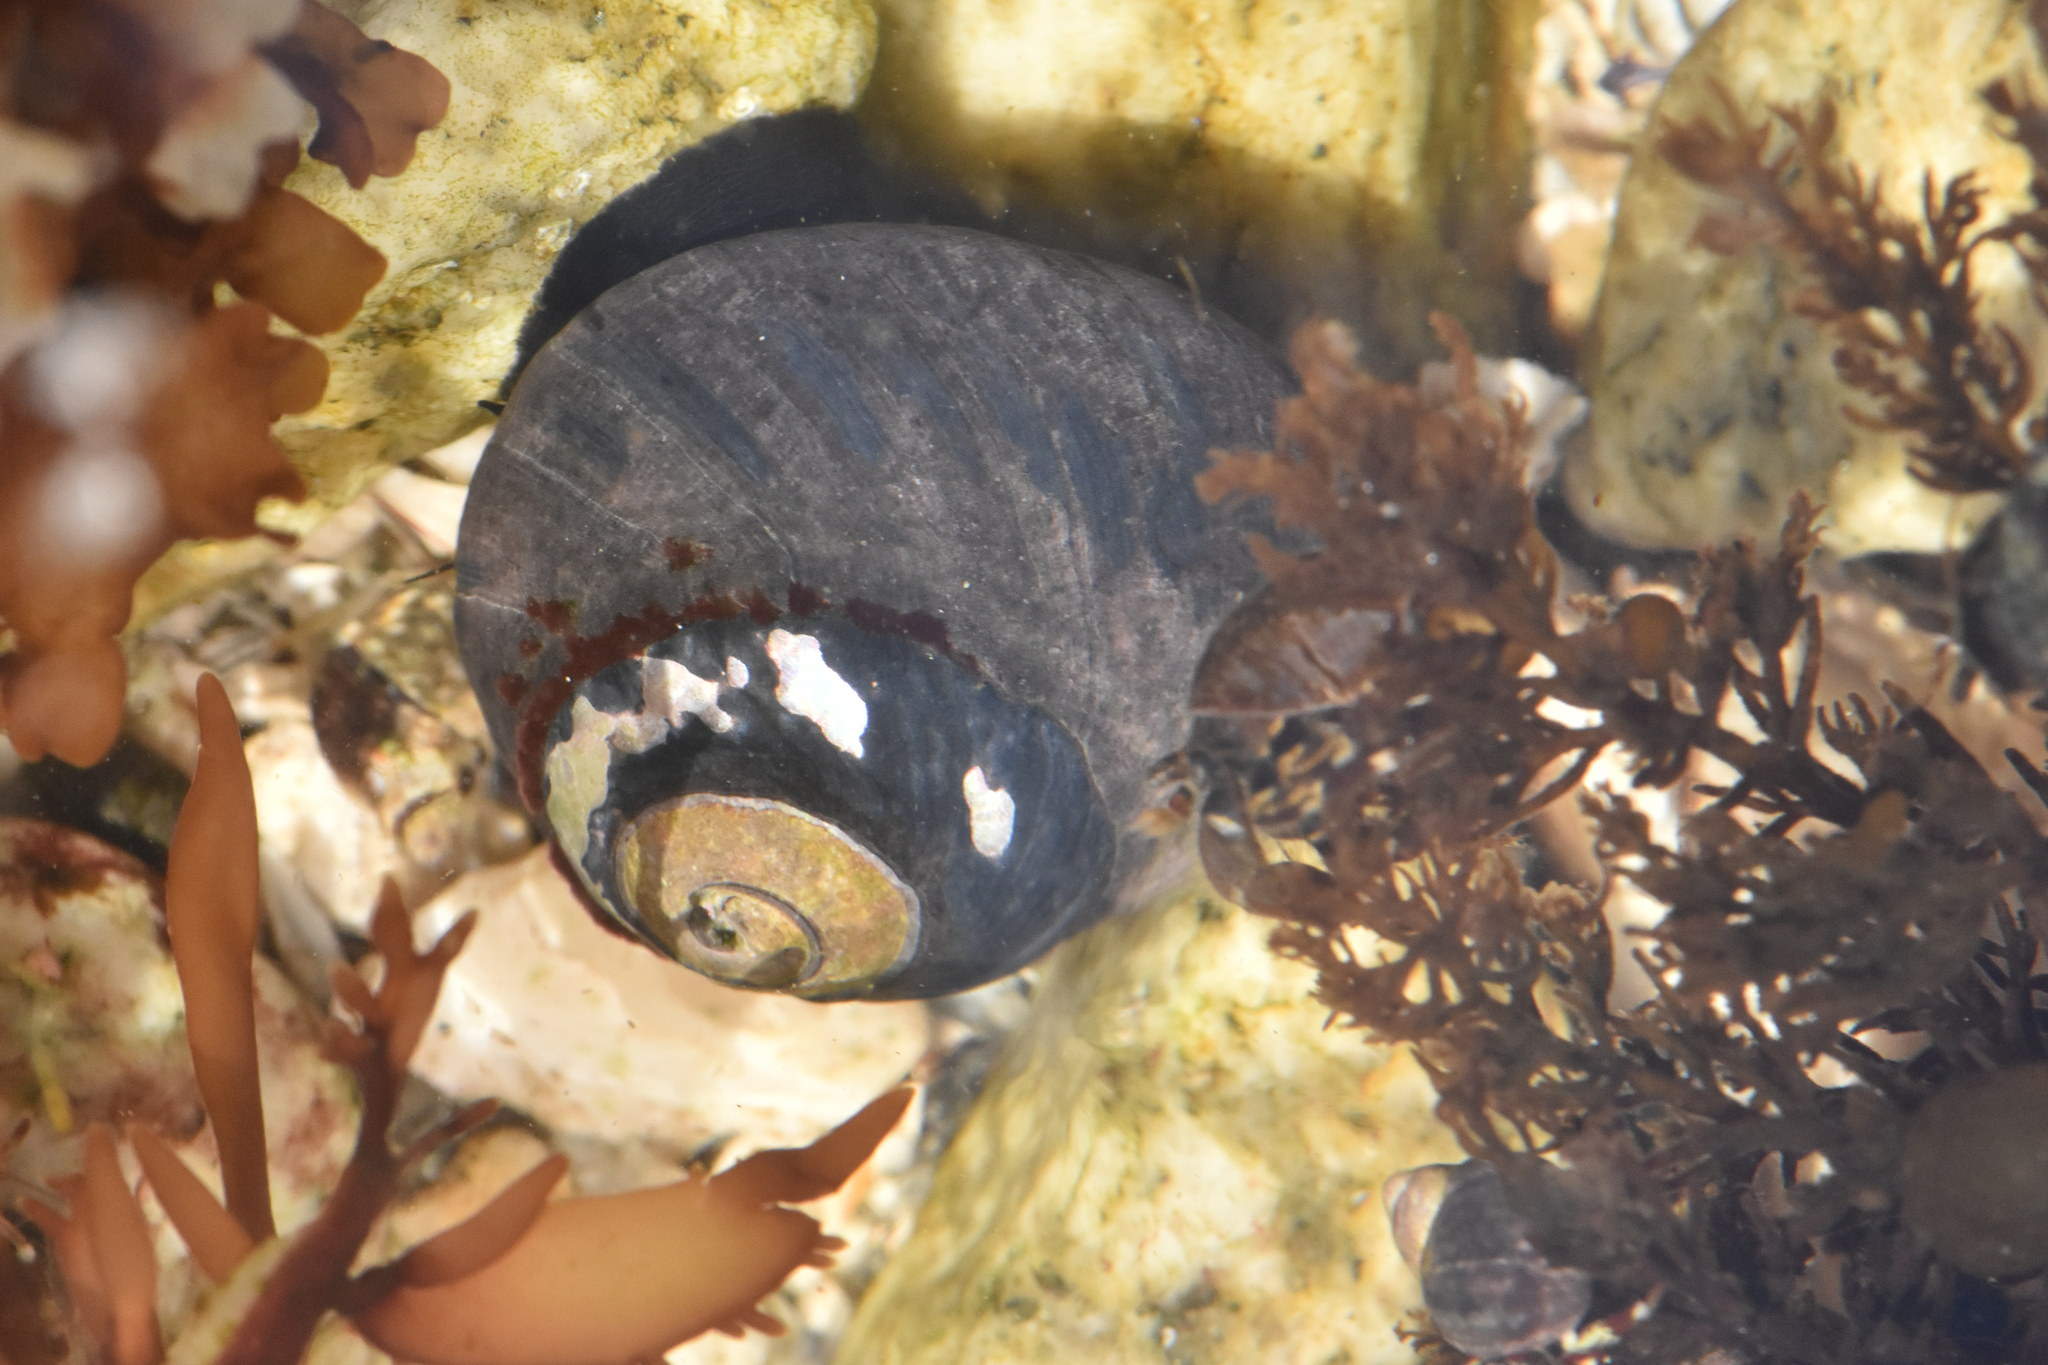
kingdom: Animalia
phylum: Mollusca
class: Gastropoda
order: Trochida
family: Tegulidae
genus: Tegula
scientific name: Tegula funebralis
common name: Black tegula
